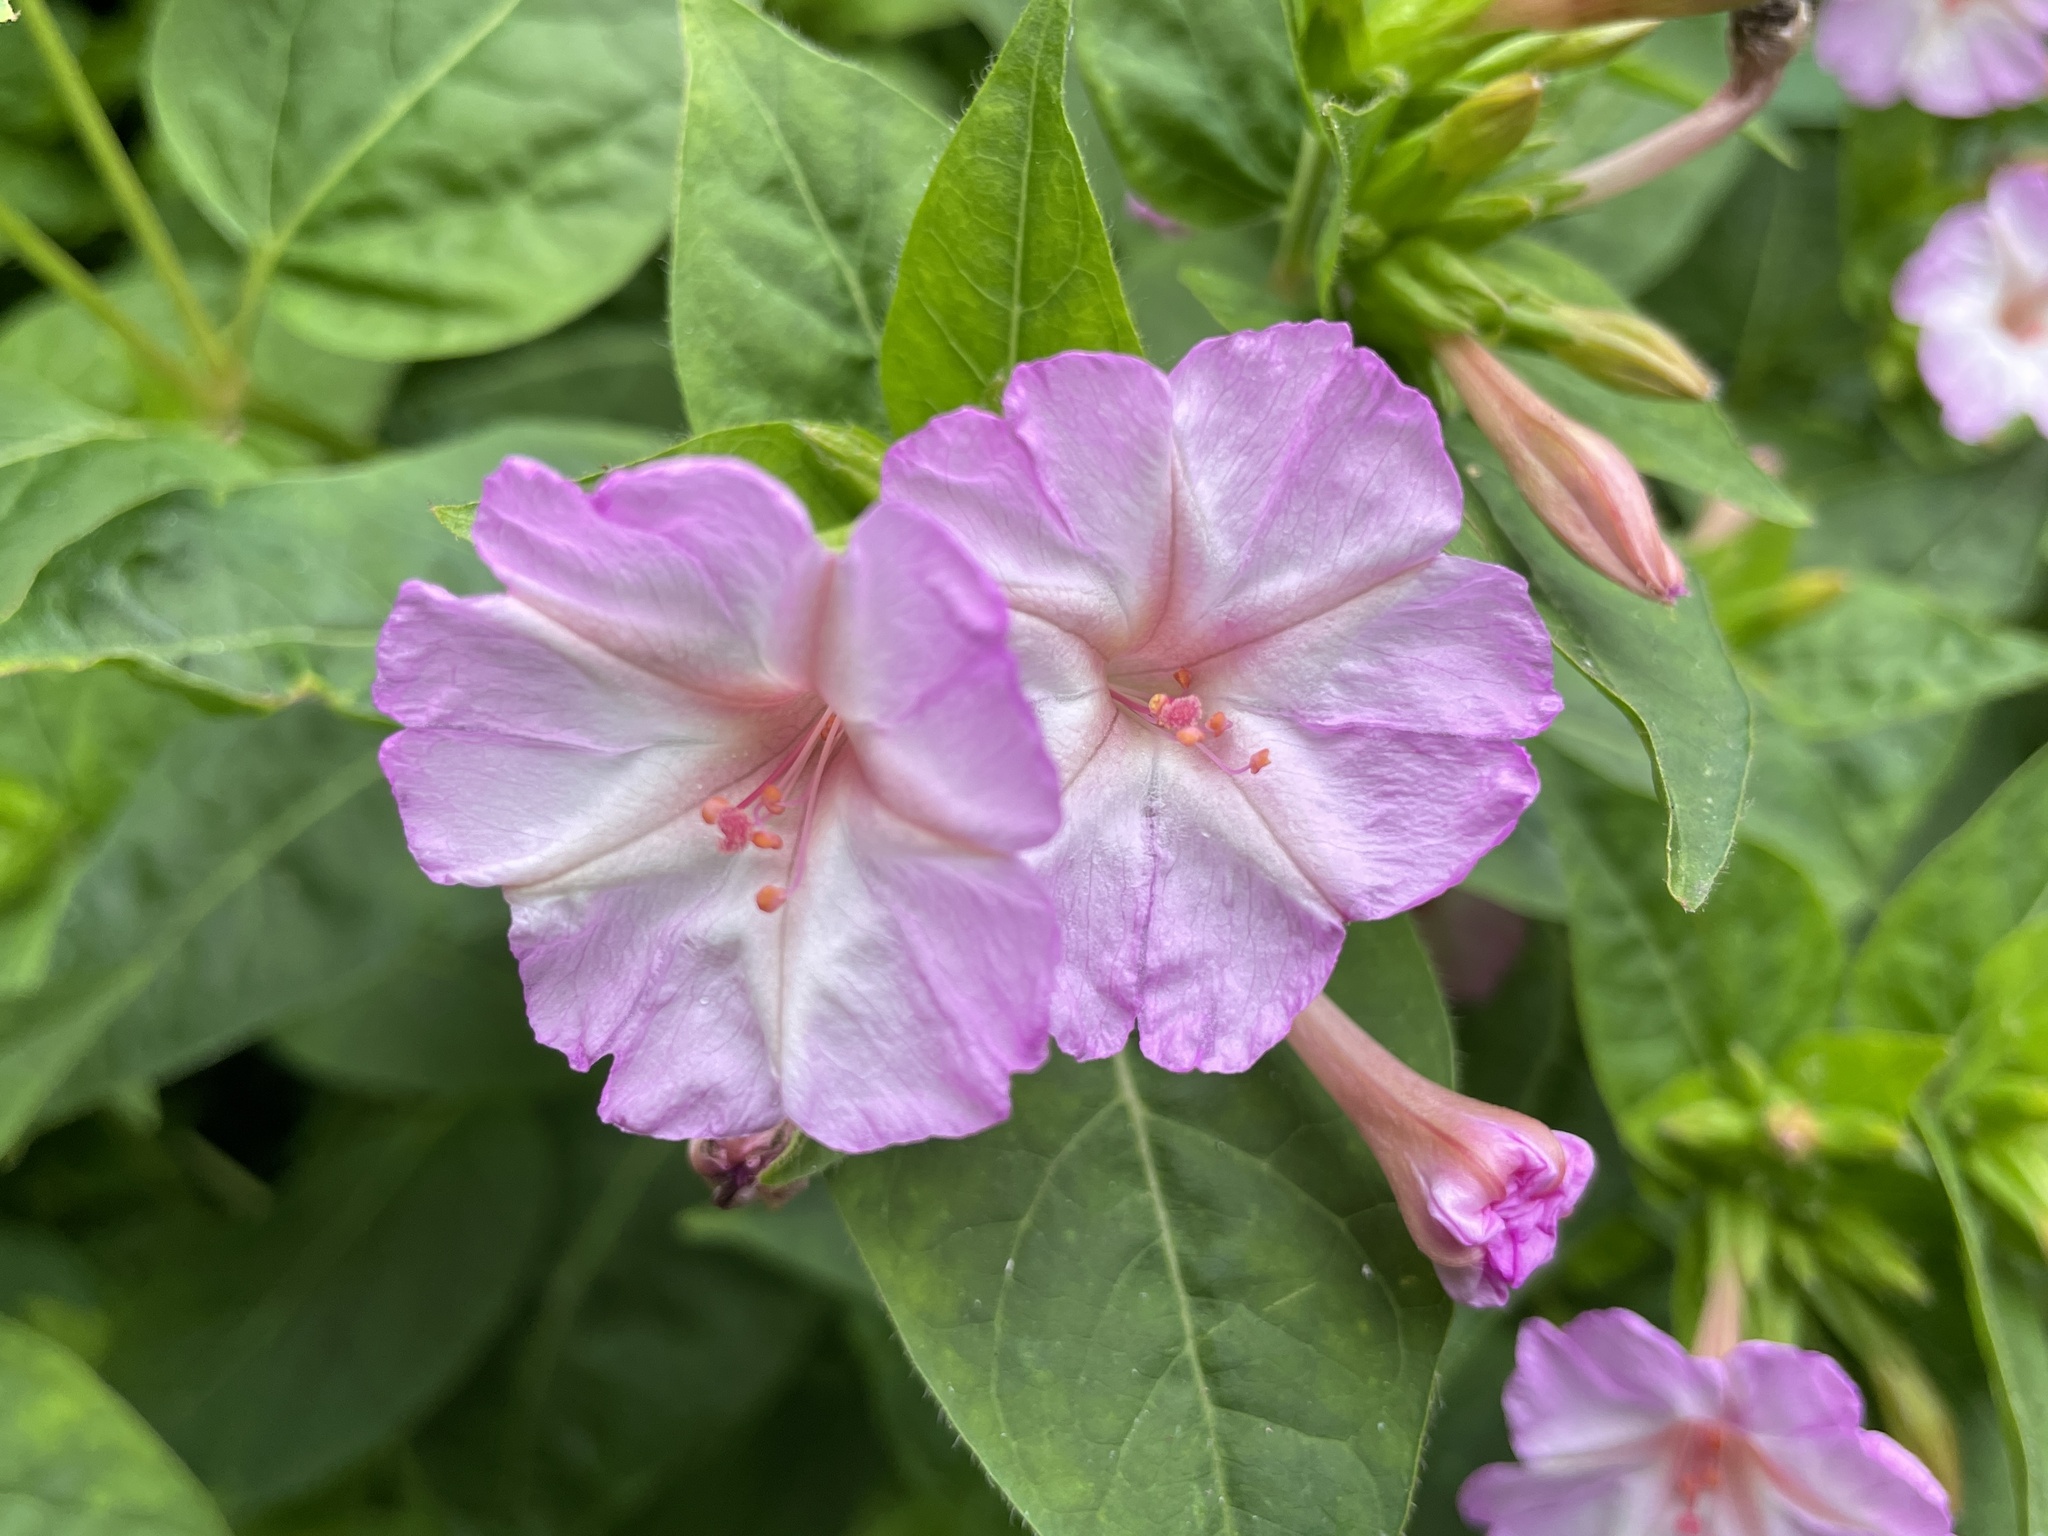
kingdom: Plantae
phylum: Tracheophyta
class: Magnoliopsida
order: Caryophyllales
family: Nyctaginaceae
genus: Mirabilis
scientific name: Mirabilis jalapa
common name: Marvel-of-peru
